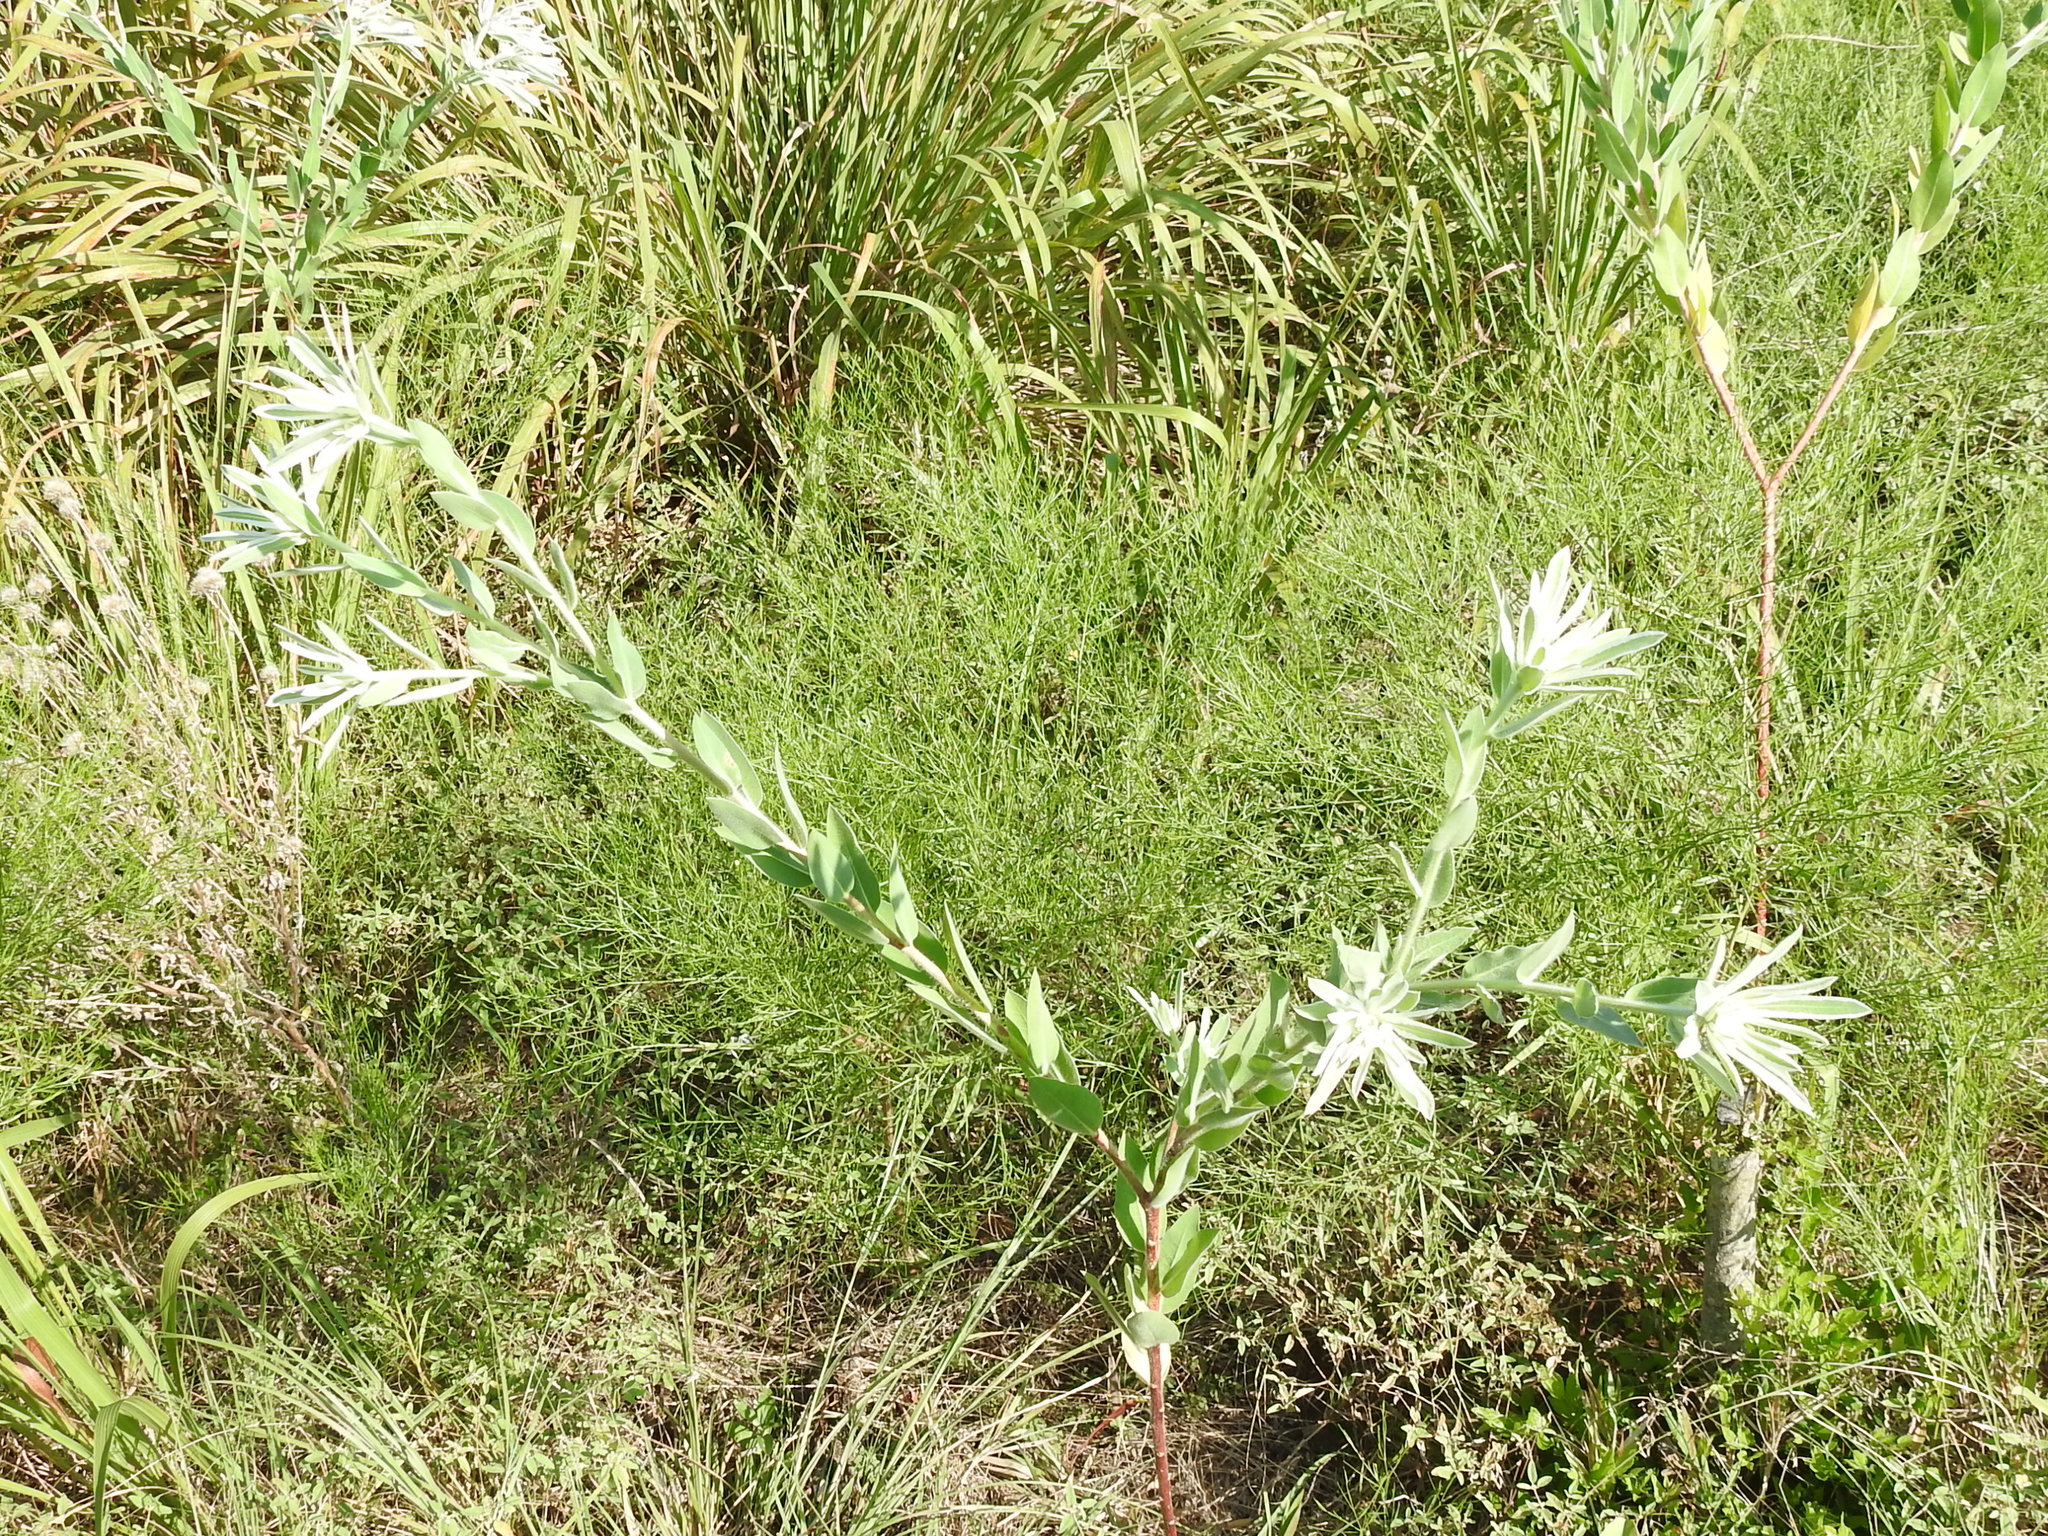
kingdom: Plantae
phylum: Tracheophyta
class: Magnoliopsida
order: Malpighiales
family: Euphorbiaceae
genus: Euphorbia
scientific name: Euphorbia bicolor
